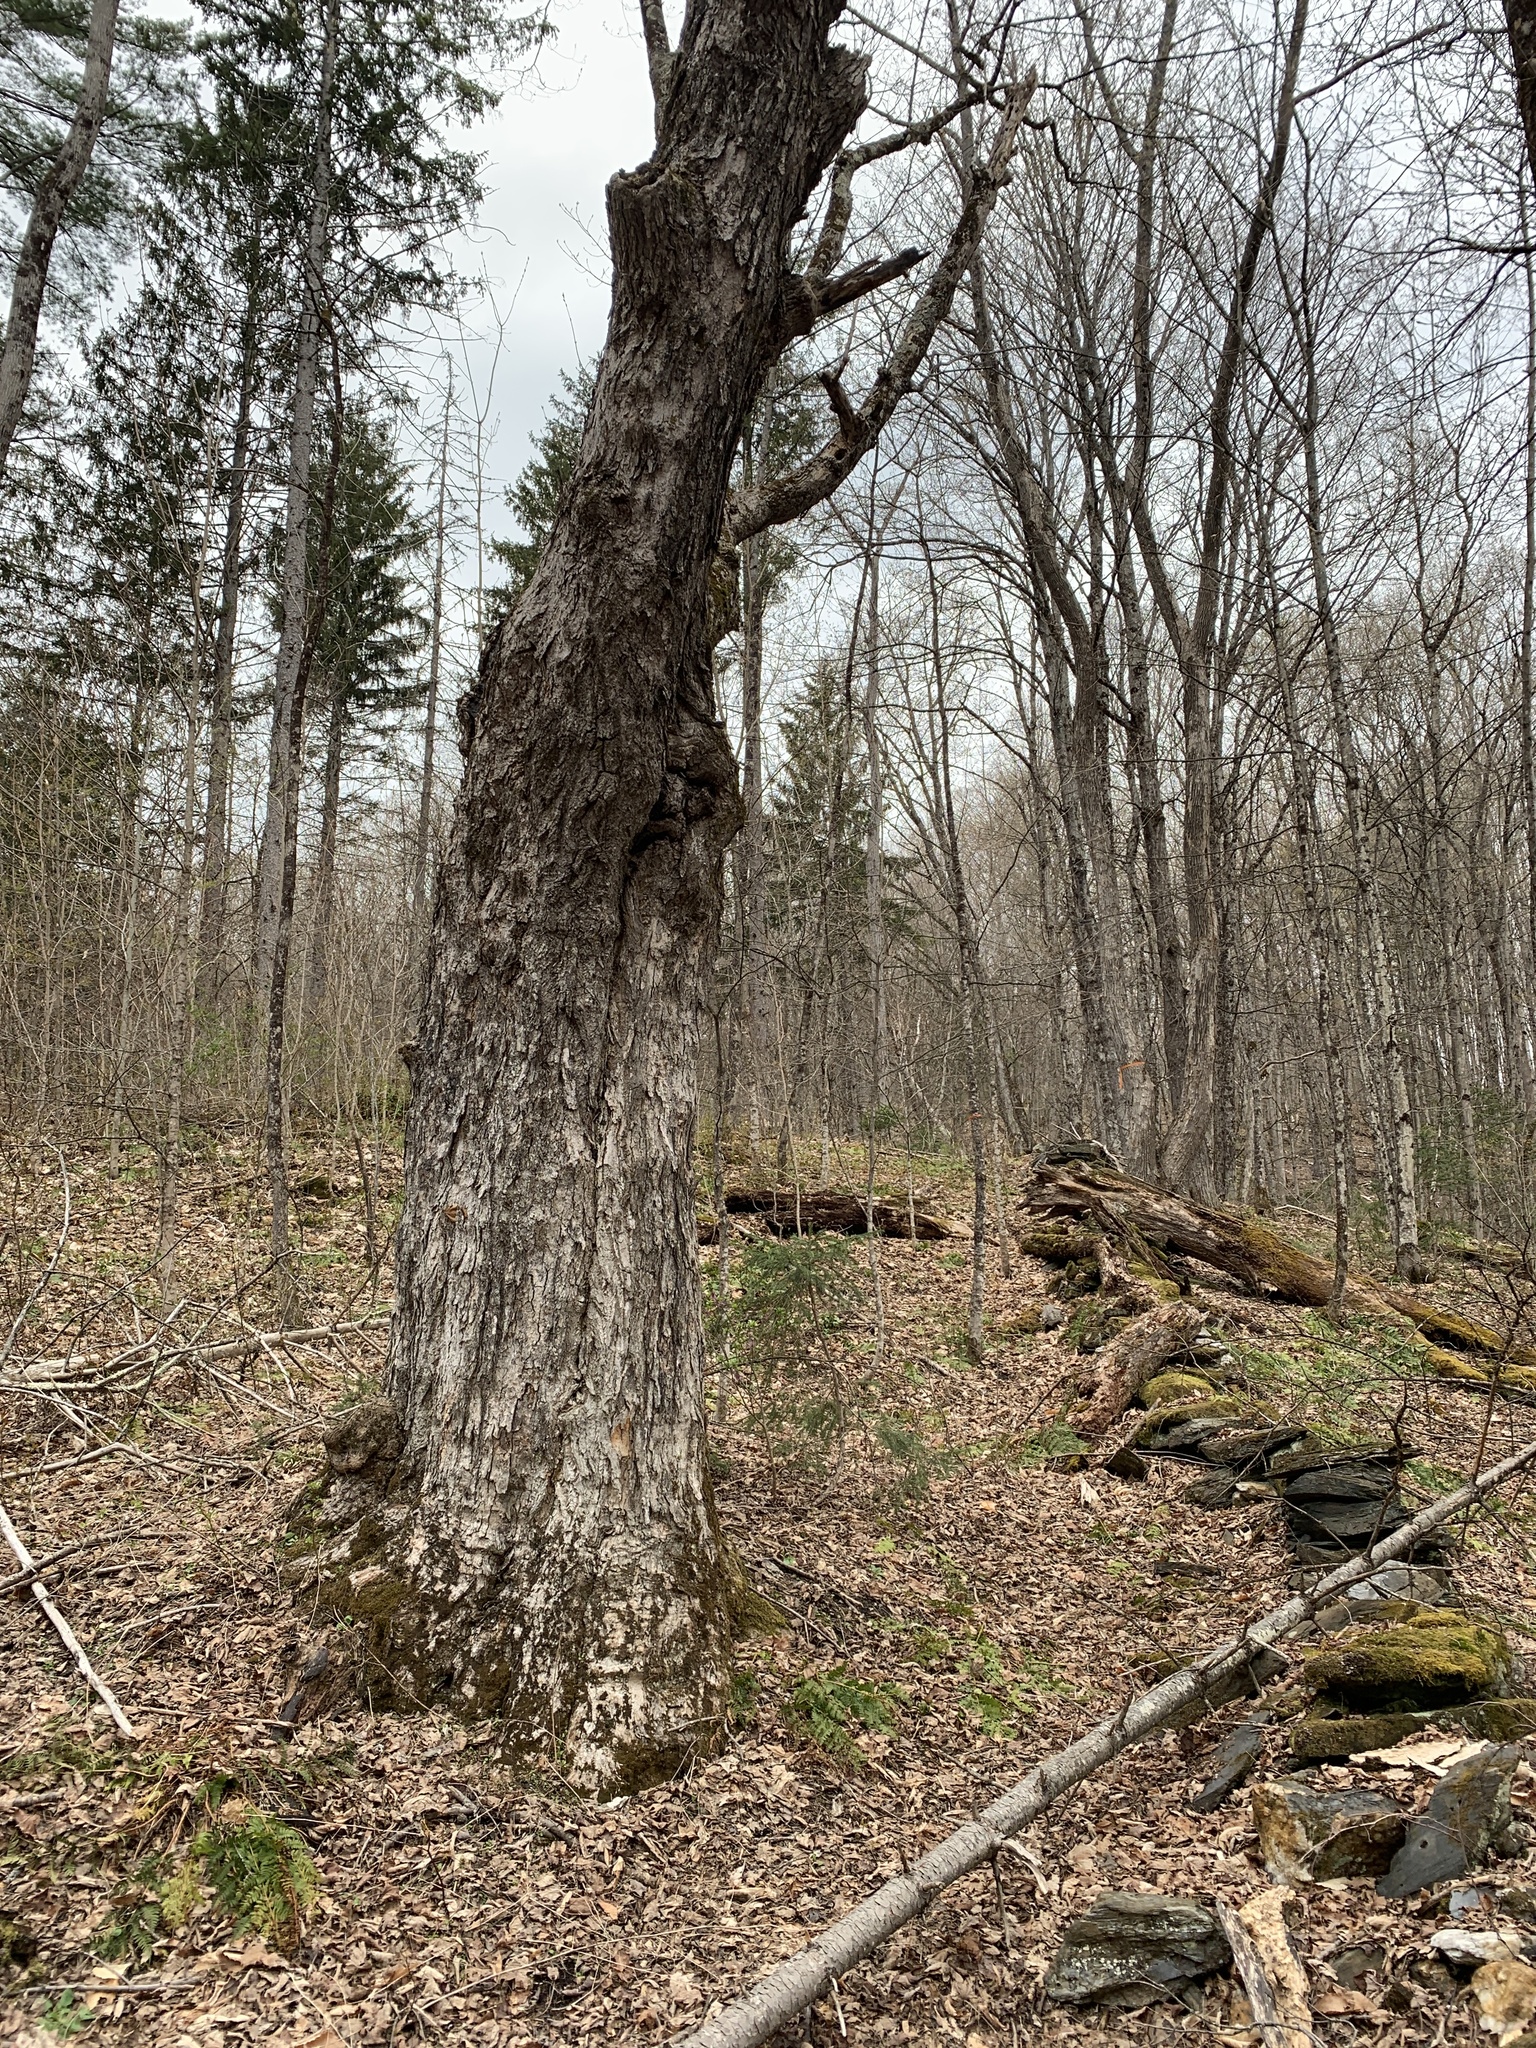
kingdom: Plantae
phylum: Tracheophyta
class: Magnoliopsida
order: Sapindales
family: Sapindaceae
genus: Acer
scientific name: Acer saccharum
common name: Sugar maple
